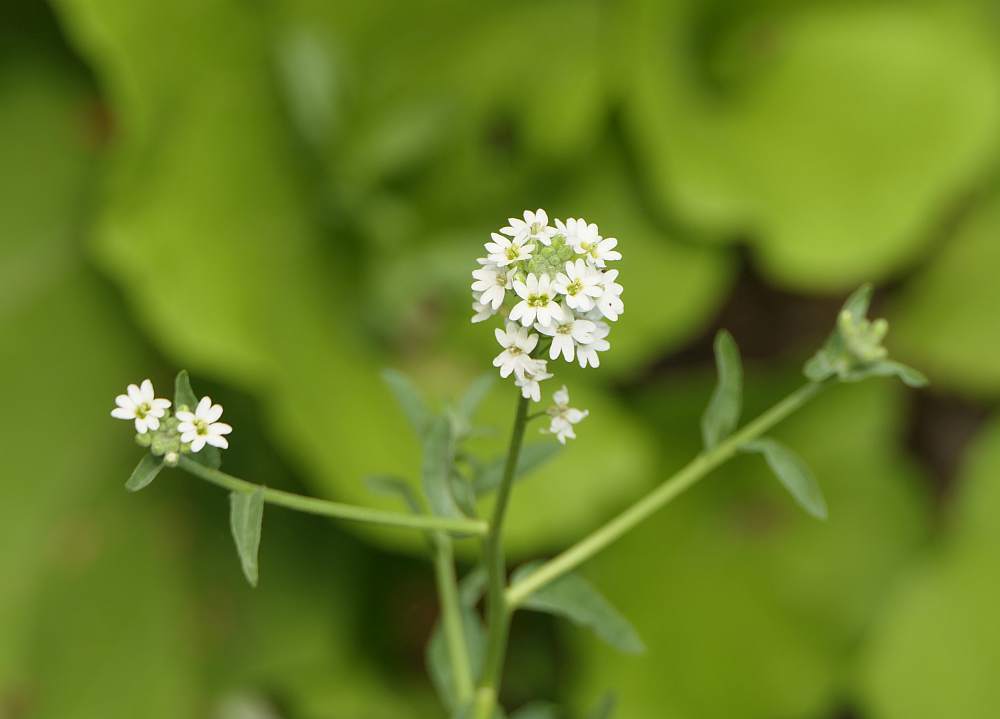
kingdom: Plantae
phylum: Tracheophyta
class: Magnoliopsida
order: Brassicales
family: Brassicaceae
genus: Berteroa
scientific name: Berteroa incana
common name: Hoary alison
